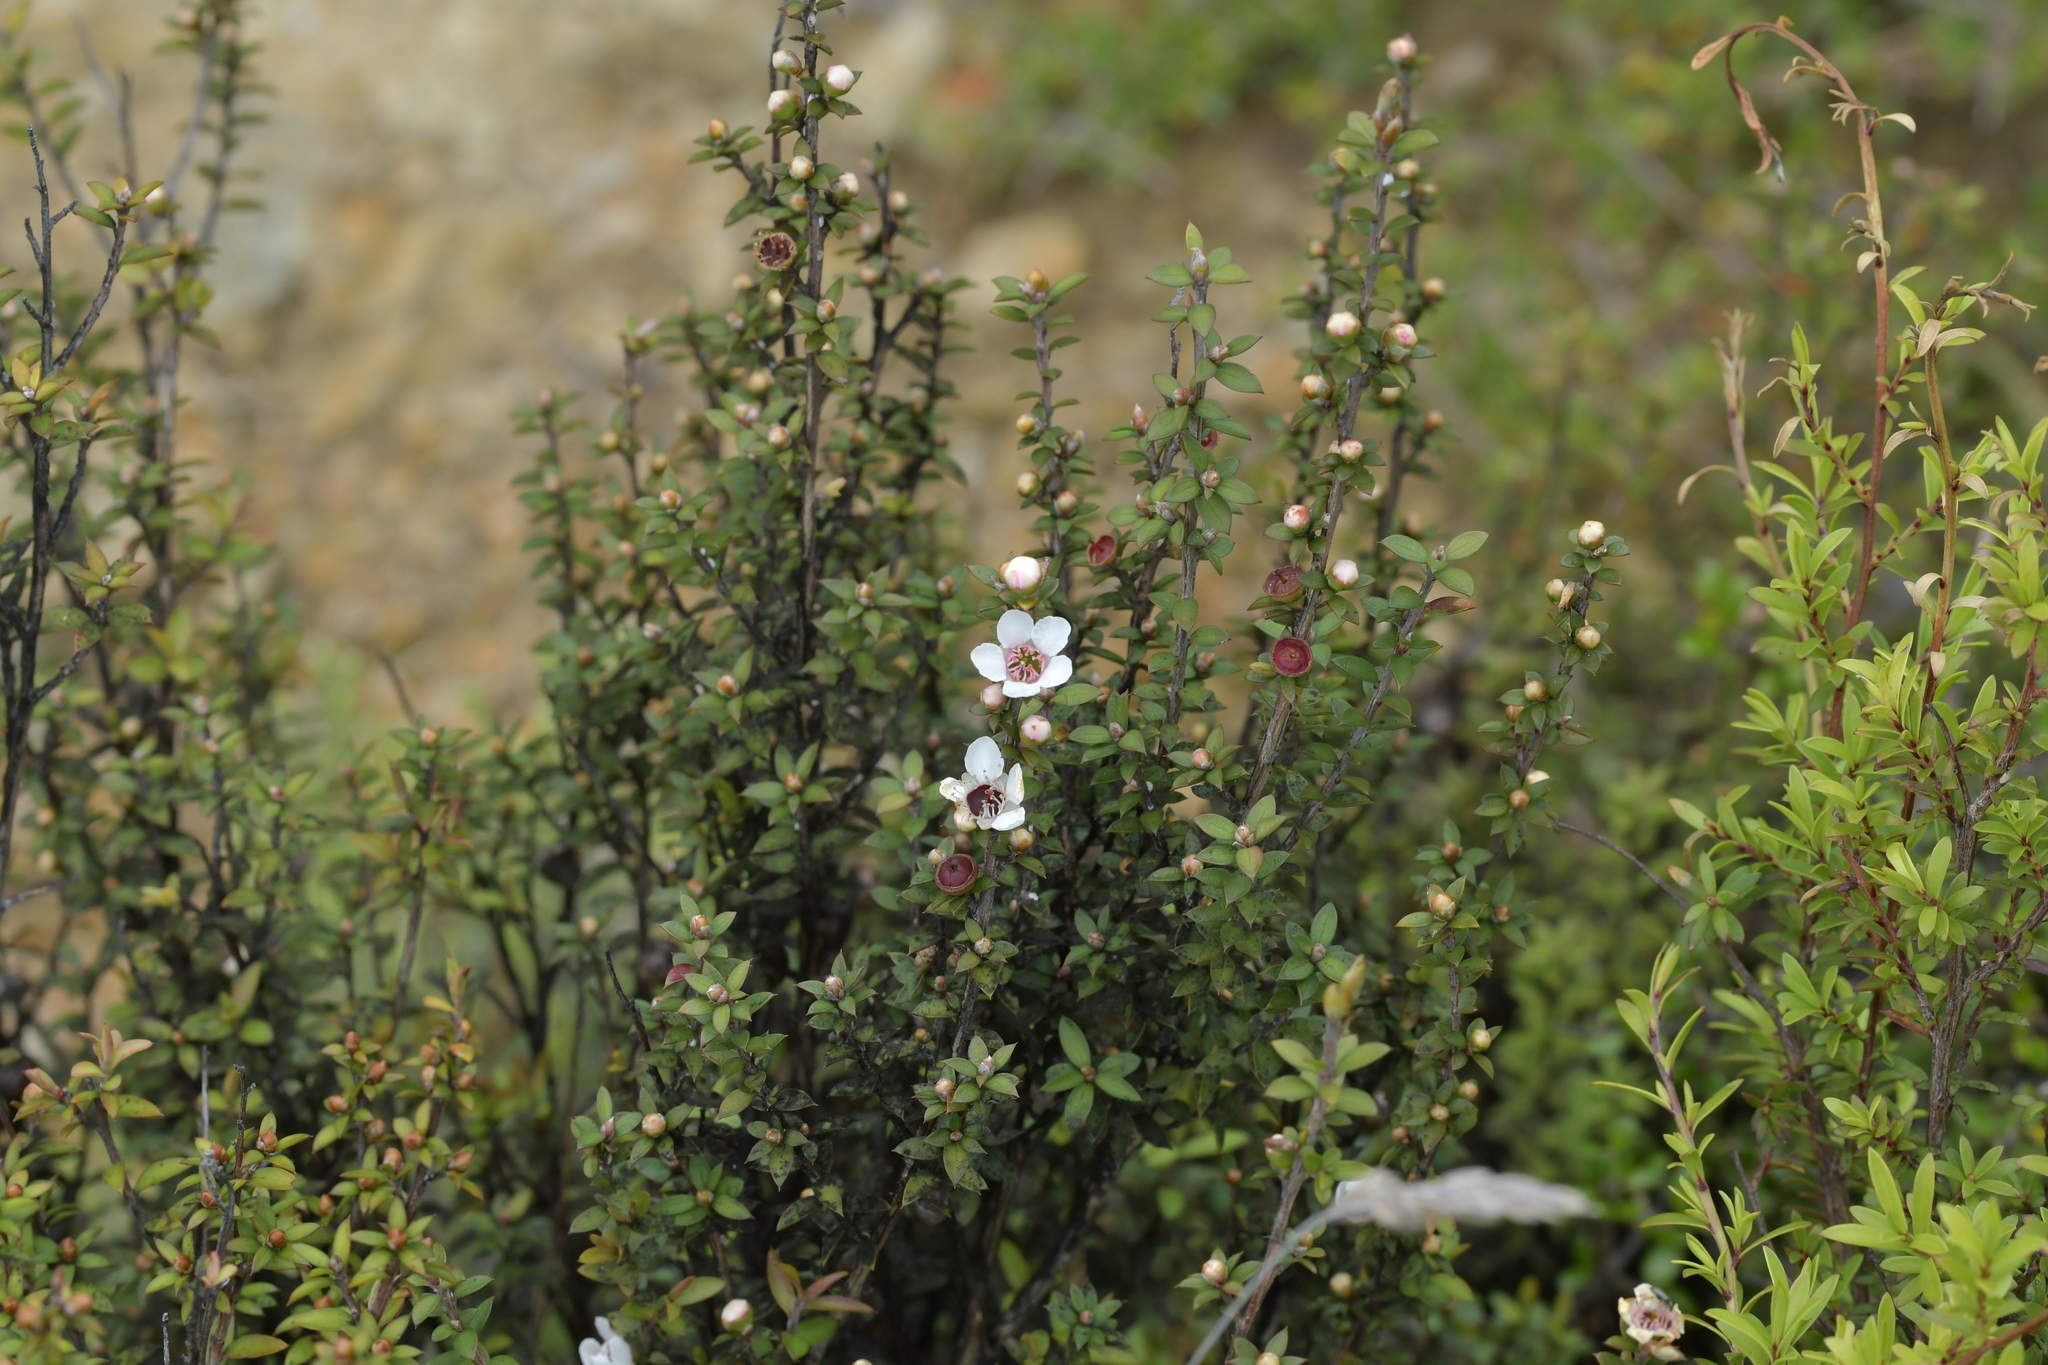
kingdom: Plantae
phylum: Tracheophyta
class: Magnoliopsida
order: Myrtales
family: Myrtaceae
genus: Leptospermum
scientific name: Leptospermum scoparium
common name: Broom tea-tree
